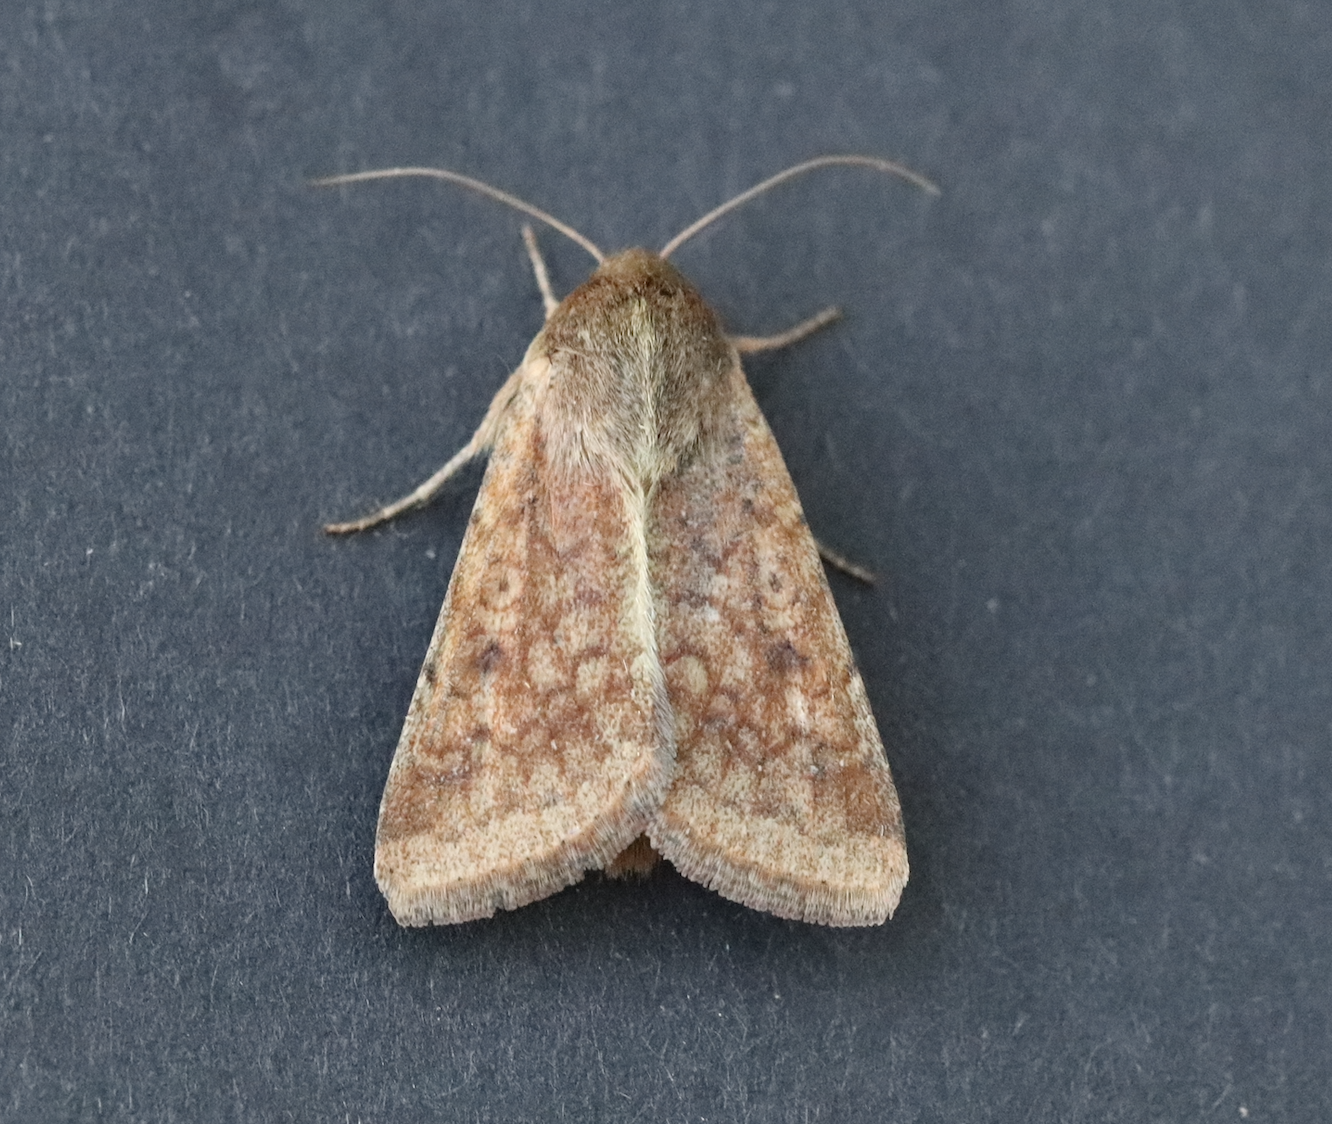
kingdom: Animalia
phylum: Arthropoda
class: Insecta
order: Lepidoptera
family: Noctuidae
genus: Helicoverpa
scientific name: Helicoverpa armigera
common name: Cotton bollworm
